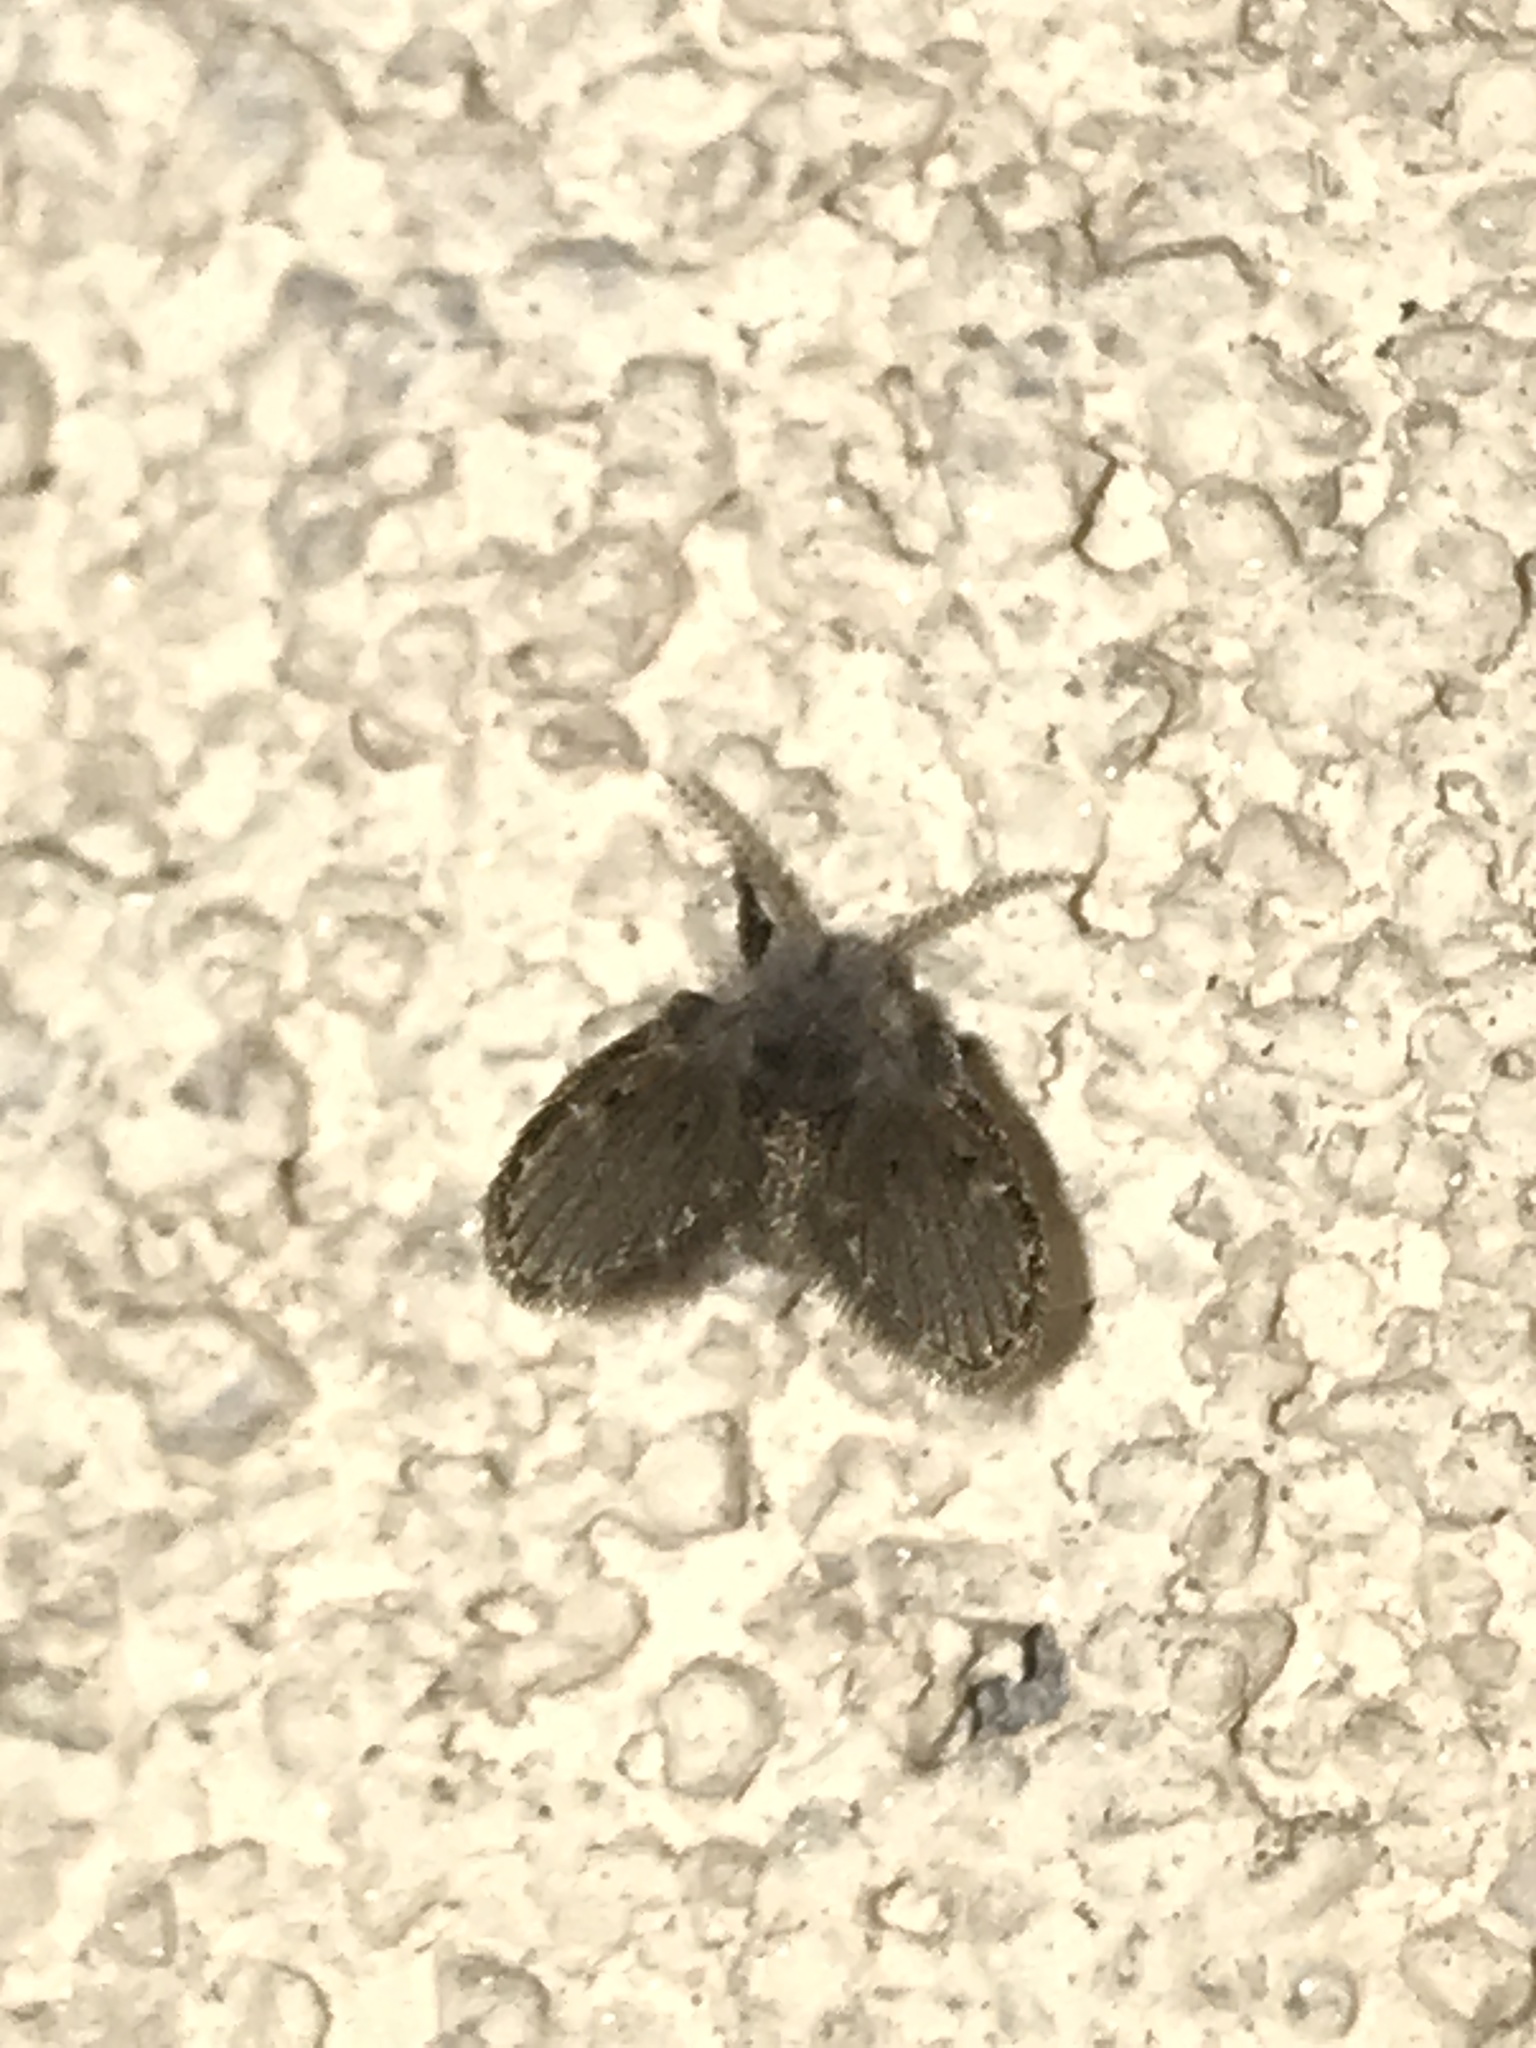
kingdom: Animalia
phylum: Arthropoda
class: Insecta
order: Diptera
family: Psychodidae
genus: Clogmia
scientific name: Clogmia albipunctatus
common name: White-spotted moth fly
